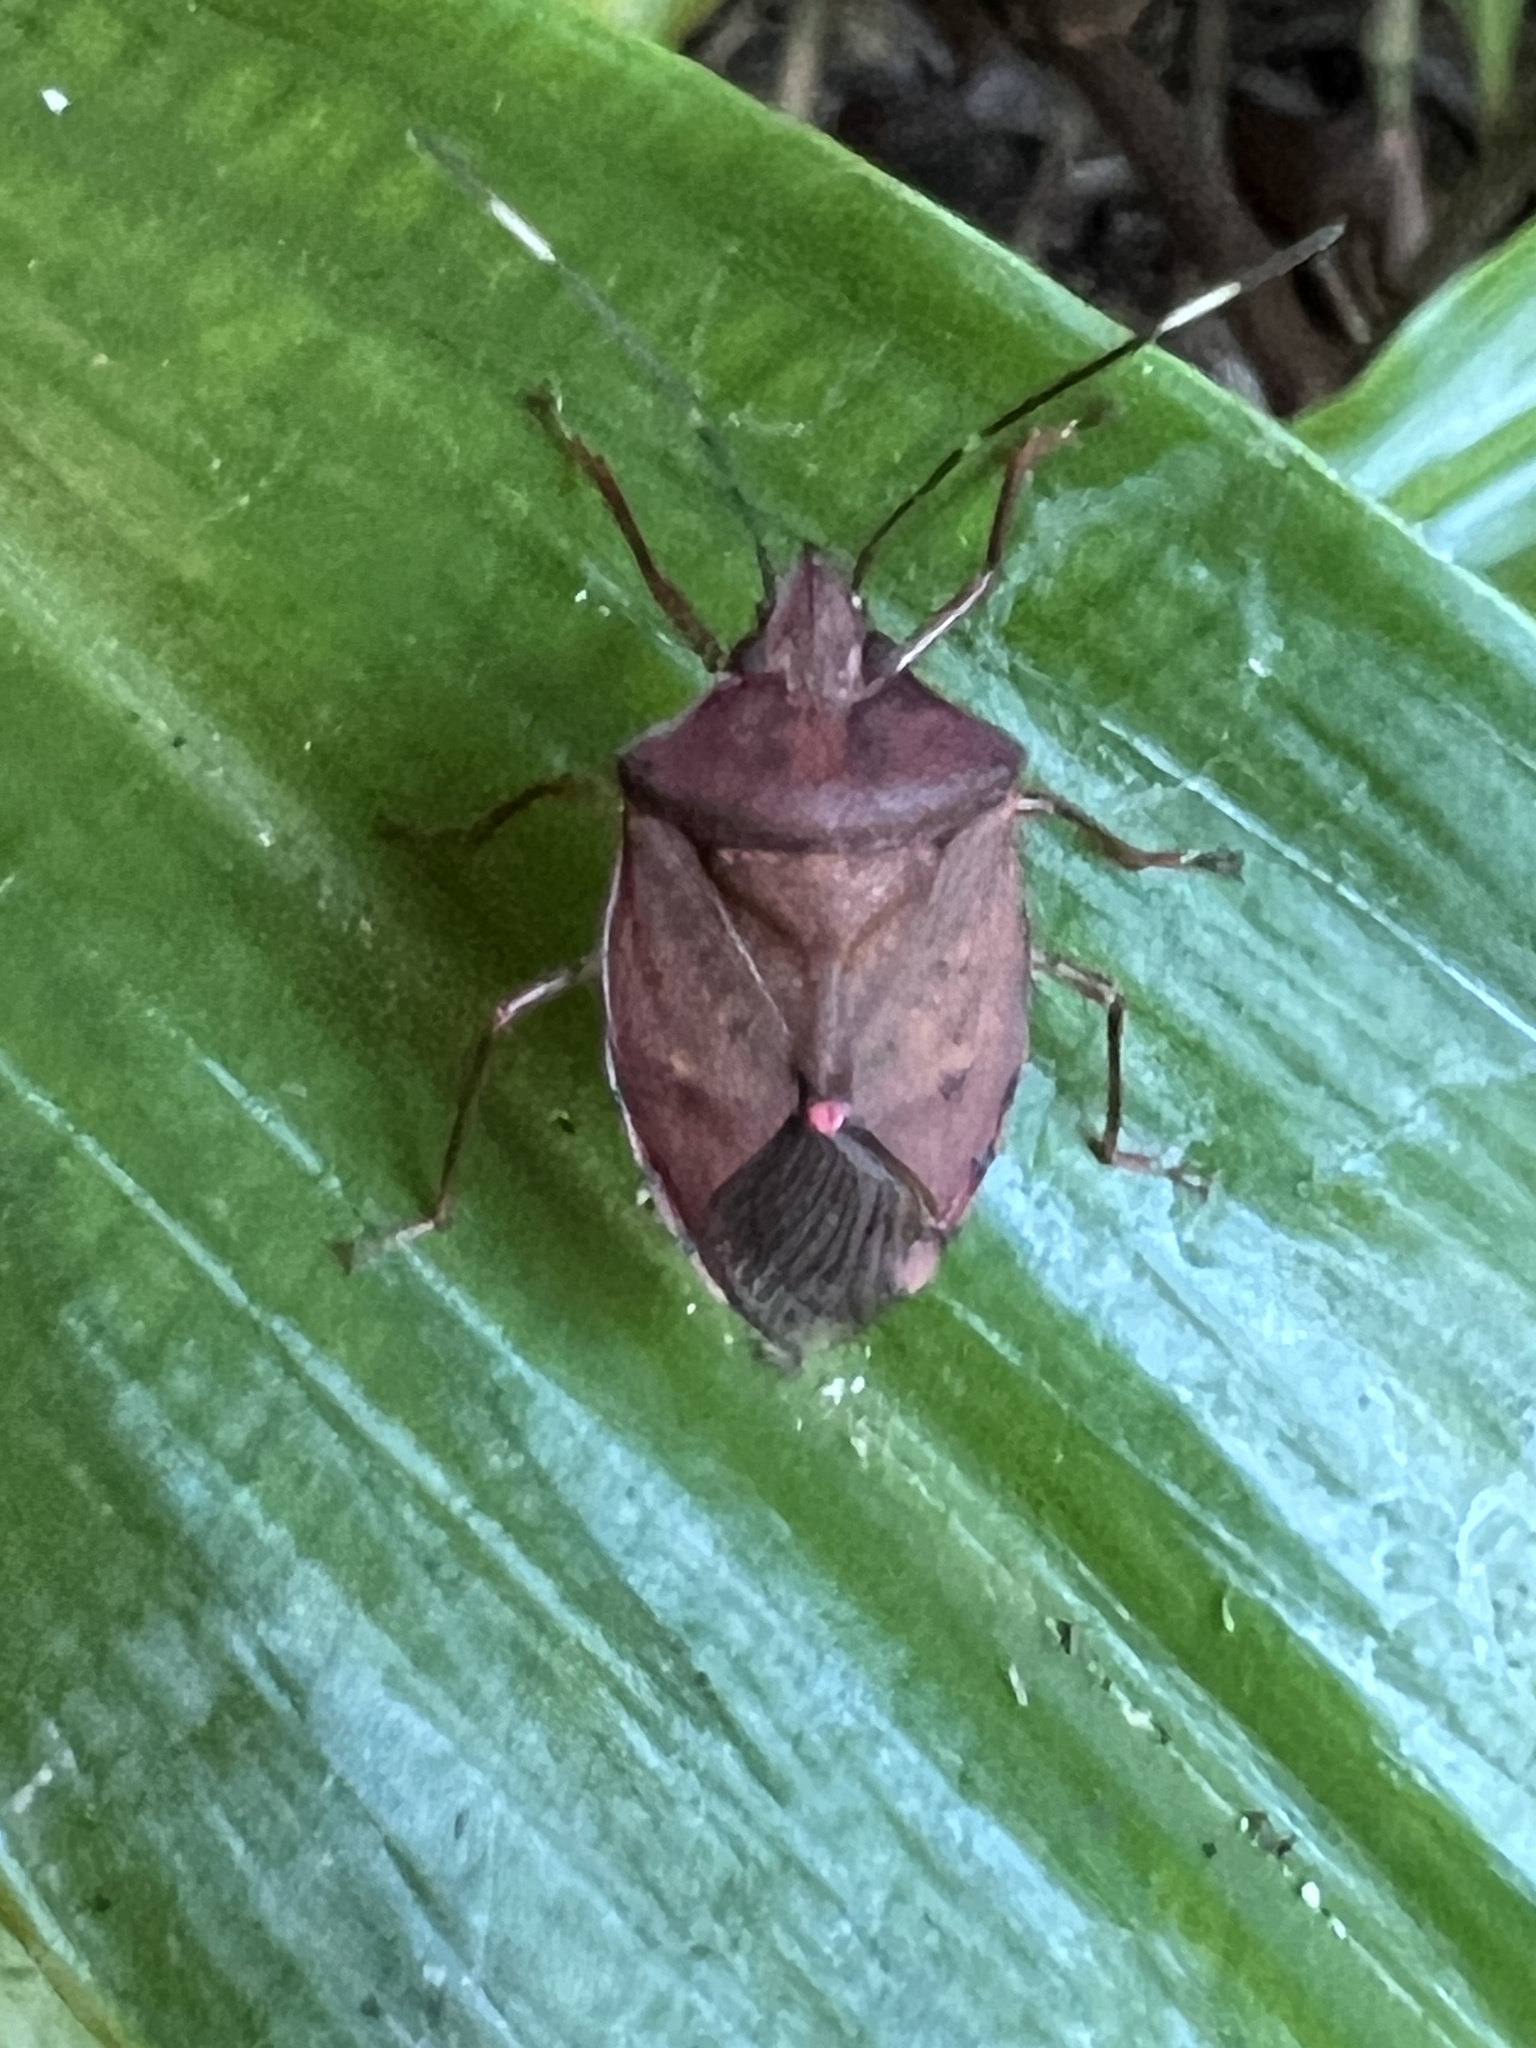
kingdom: Animalia
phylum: Arthropoda
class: Insecta
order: Hemiptera
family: Pentatomidae
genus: Munduala
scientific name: Munduala
